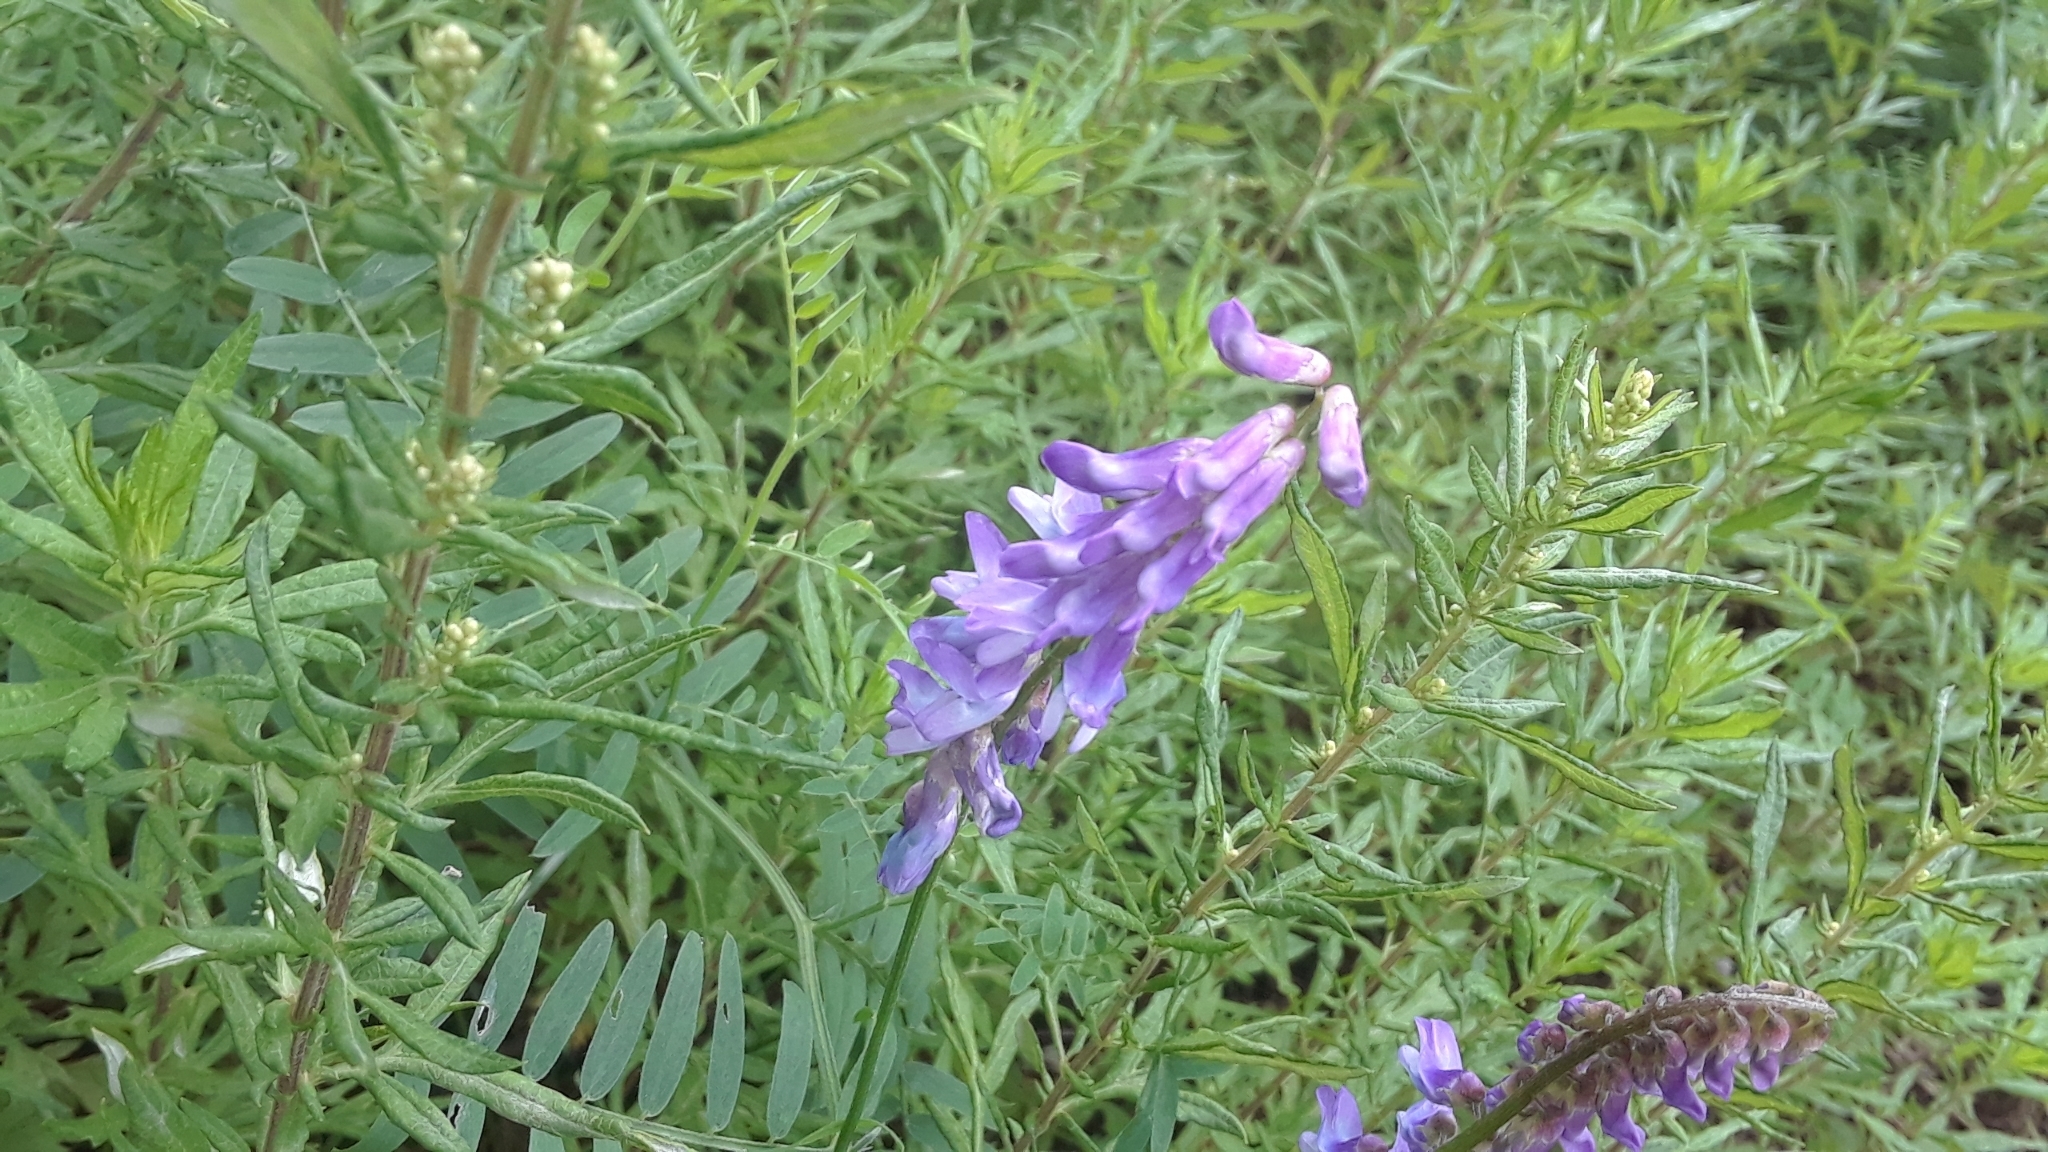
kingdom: Plantae
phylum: Tracheophyta
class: Magnoliopsida
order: Fabales
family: Fabaceae
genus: Vicia
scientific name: Vicia cracca
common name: Bird vetch
